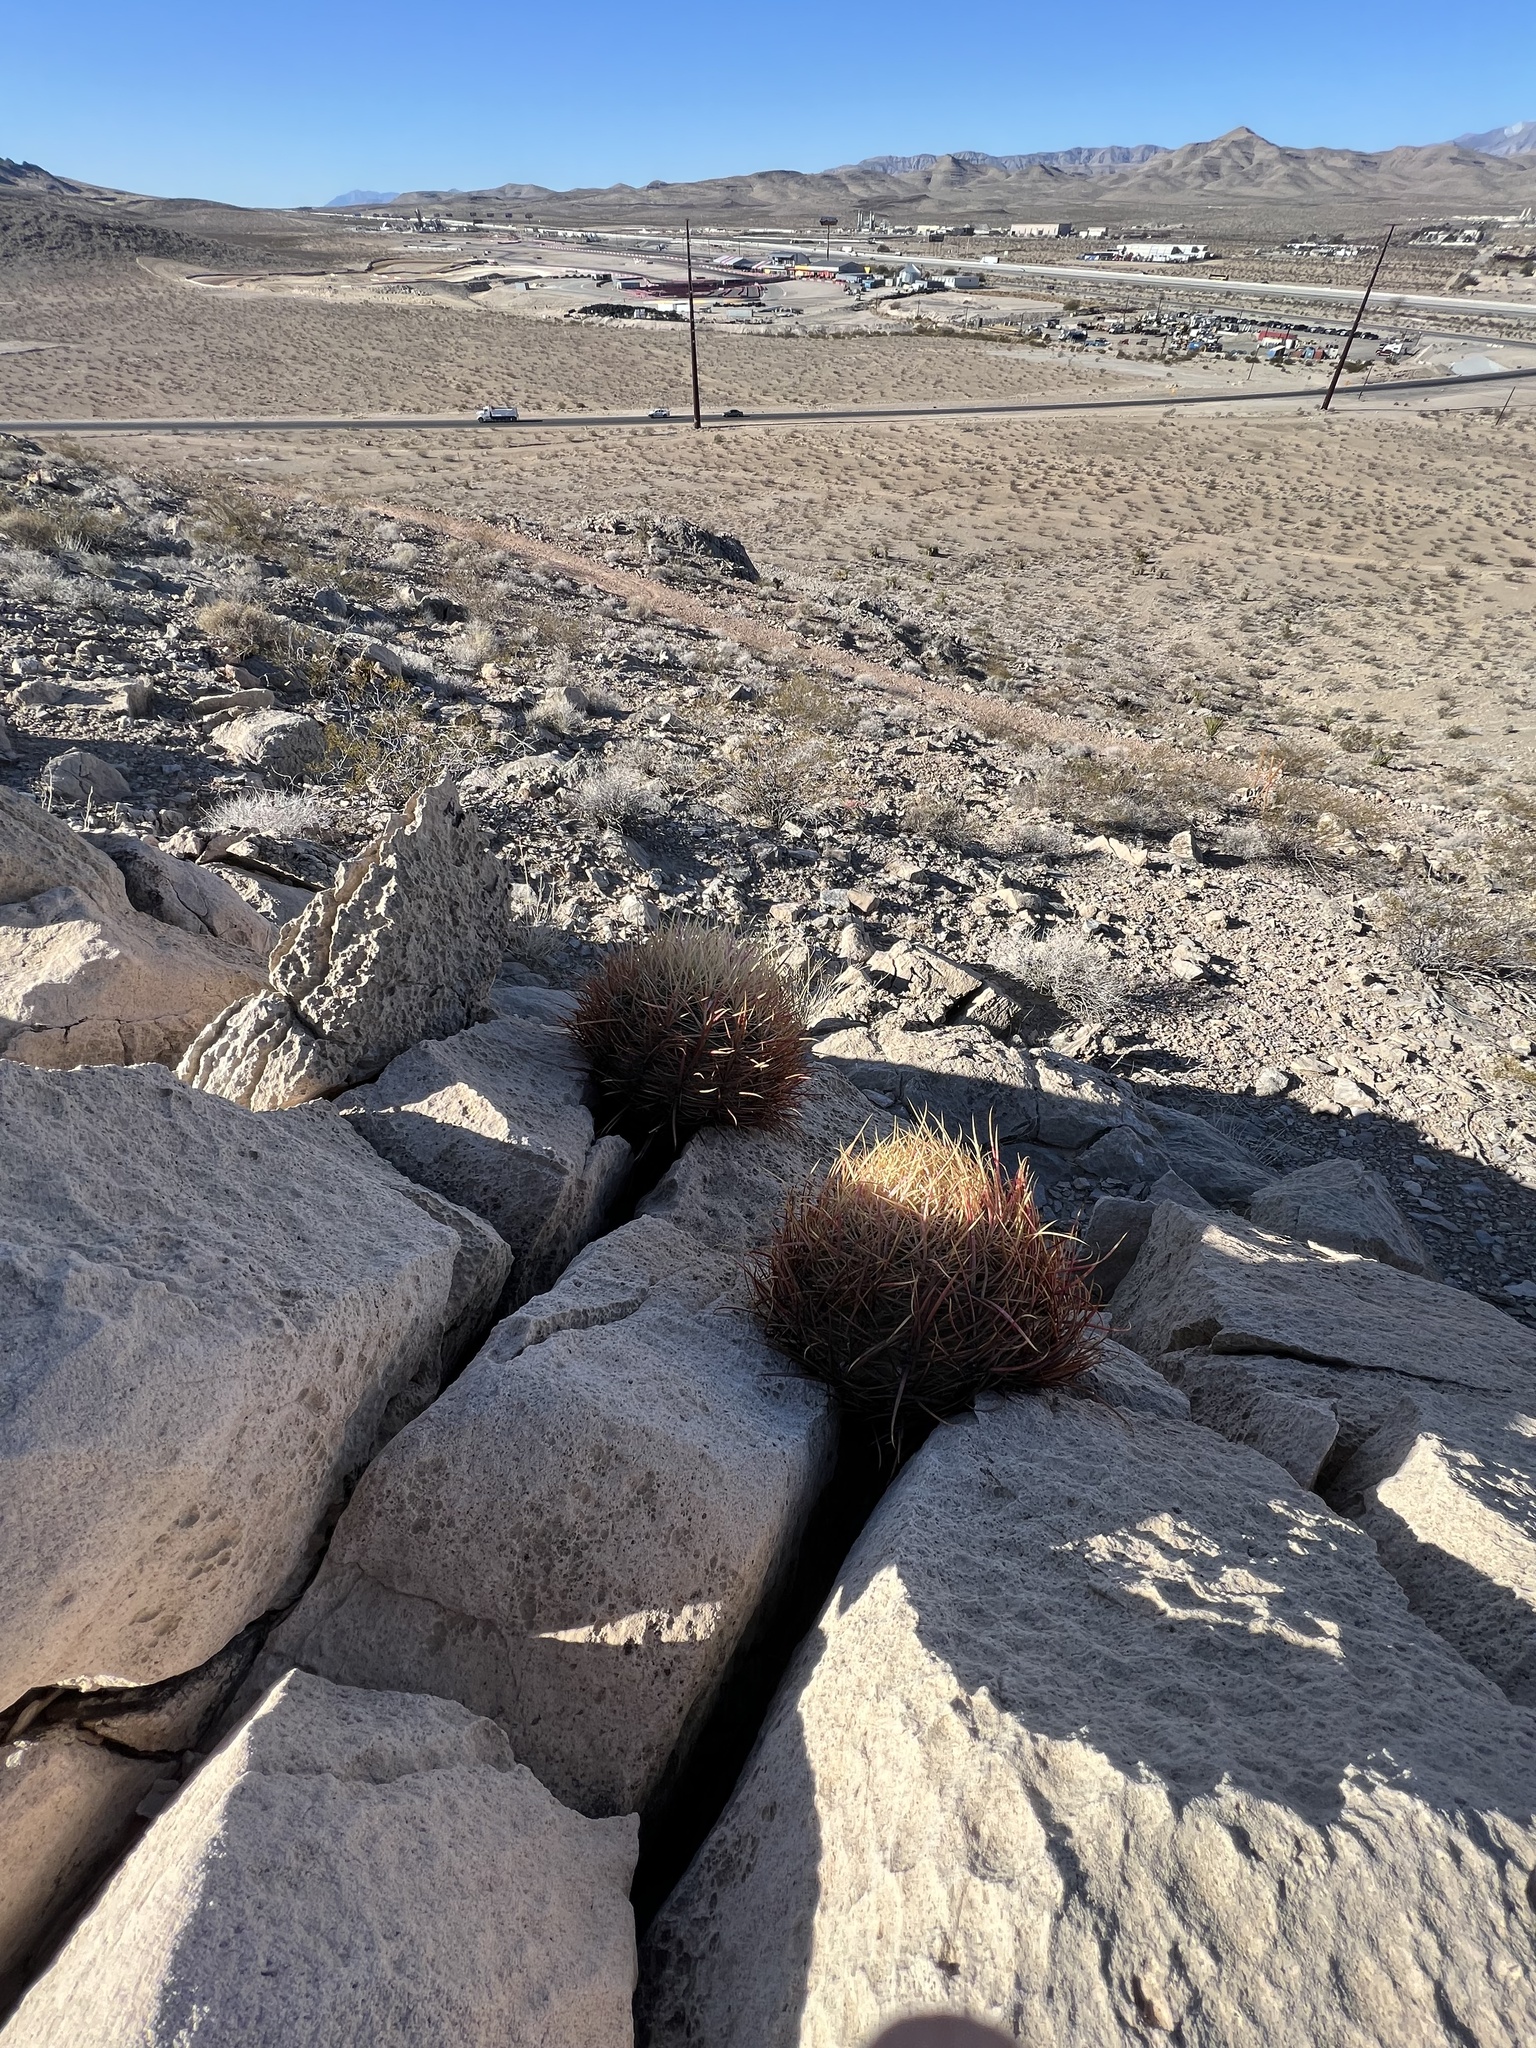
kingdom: Plantae
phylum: Tracheophyta
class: Magnoliopsida
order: Caryophyllales
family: Cactaceae
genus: Ferocactus
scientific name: Ferocactus cylindraceus
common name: California barrel cactus
